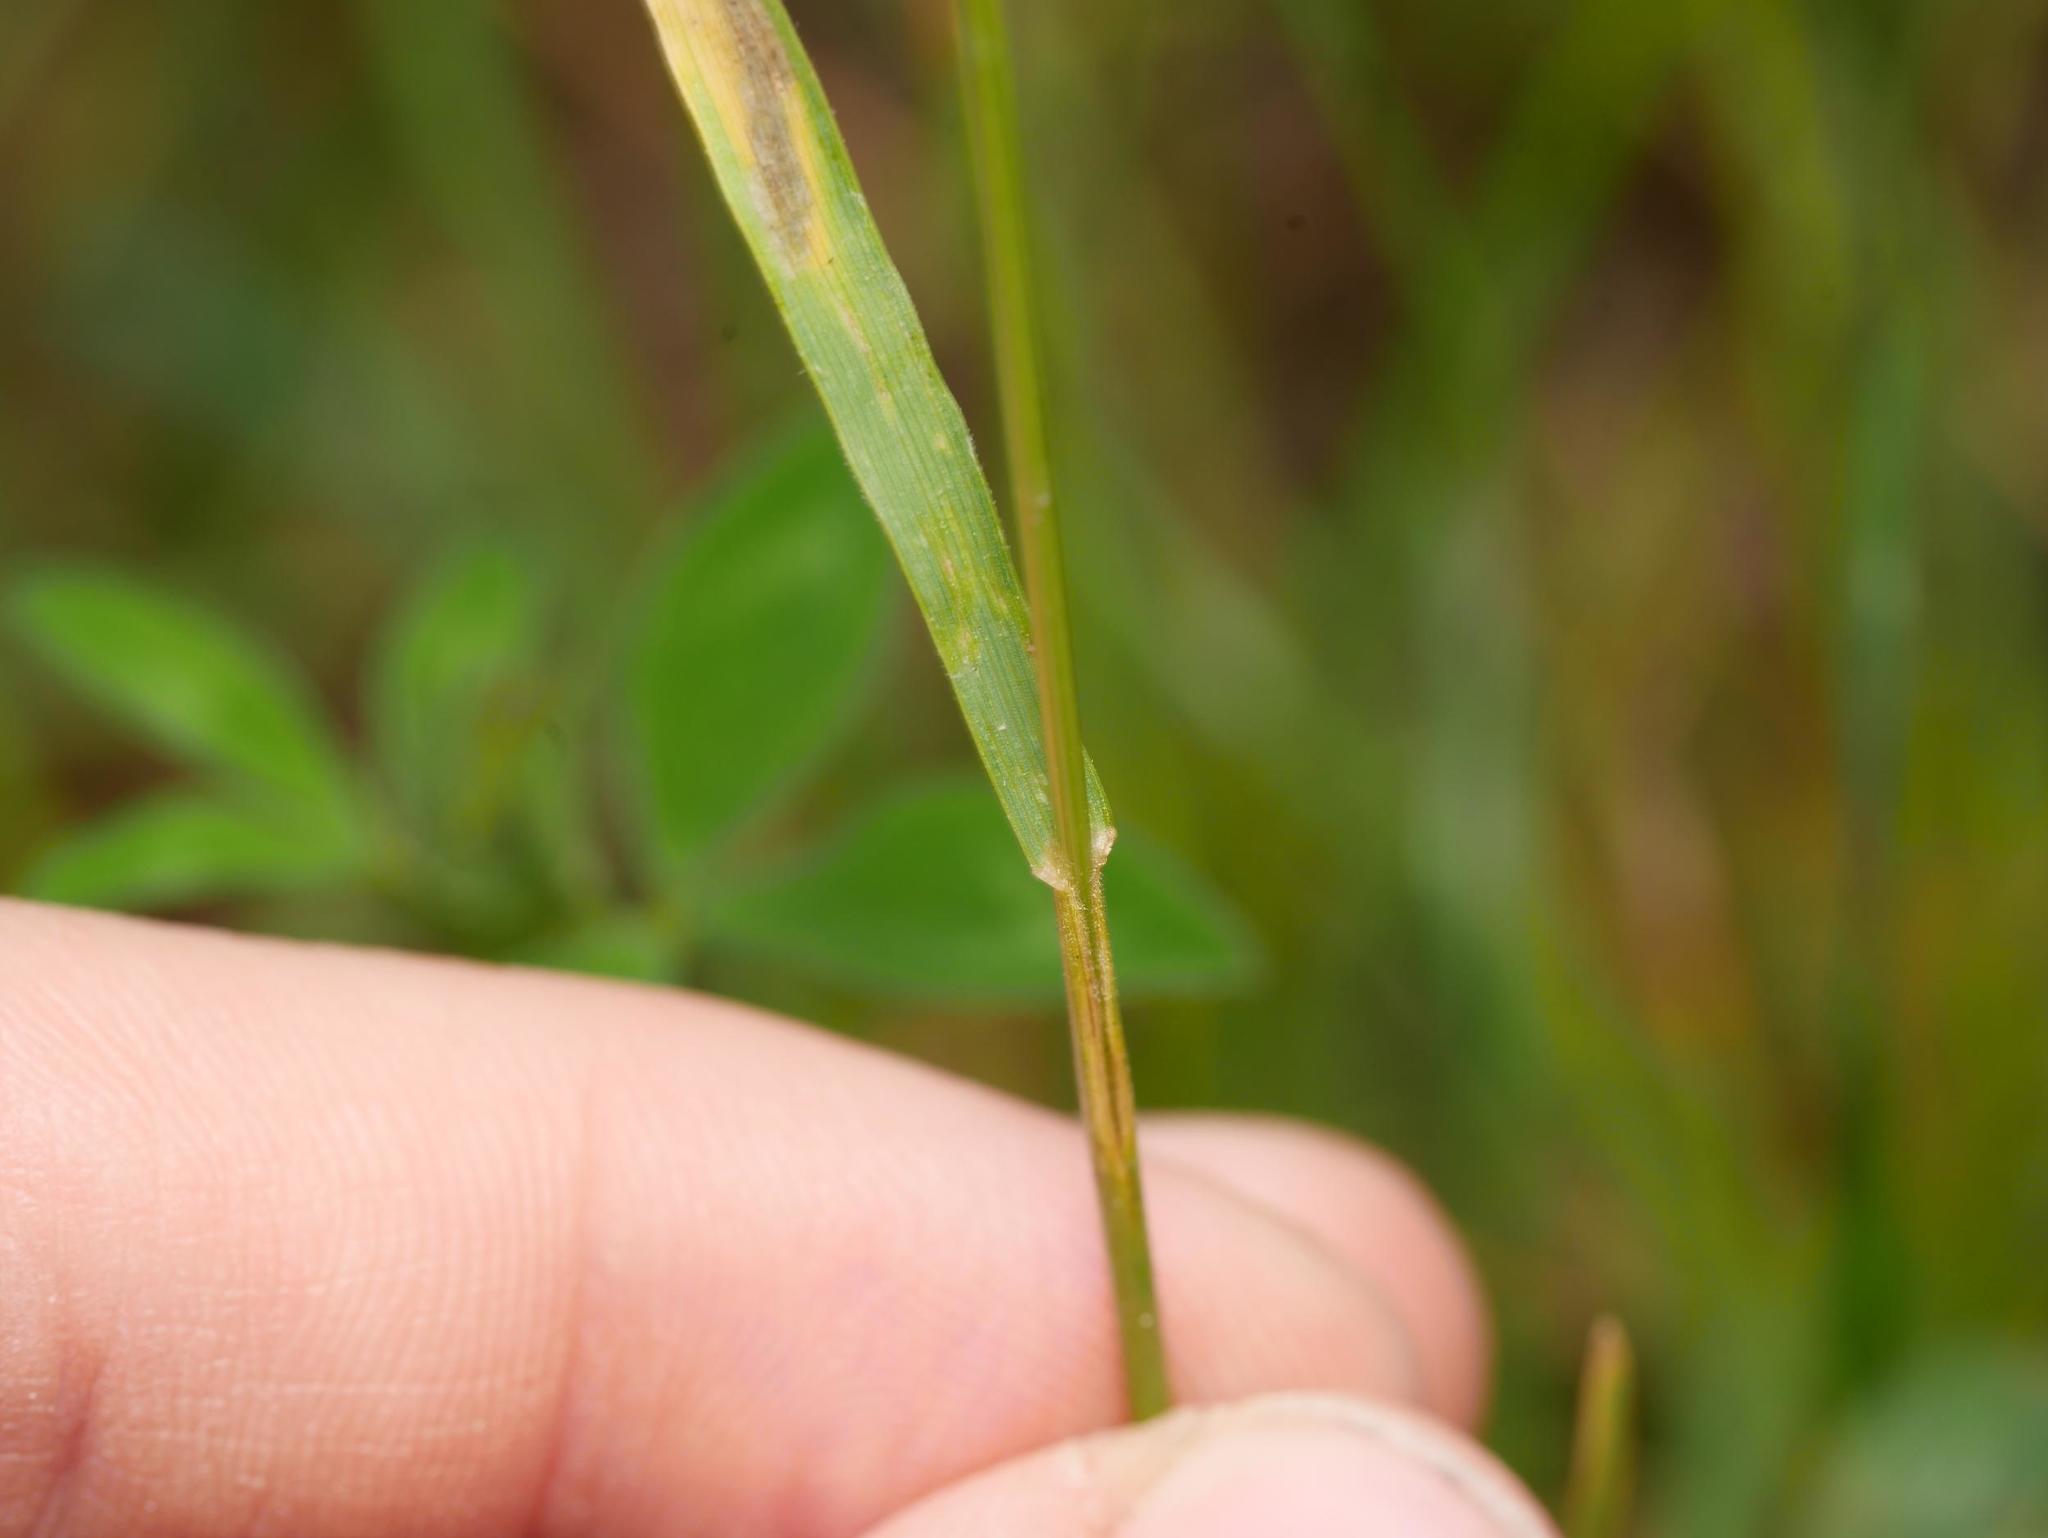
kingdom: Plantae
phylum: Tracheophyta
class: Liliopsida
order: Poales
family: Poaceae
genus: Bromus
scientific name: Bromus hordeaceus
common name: Soft brome
